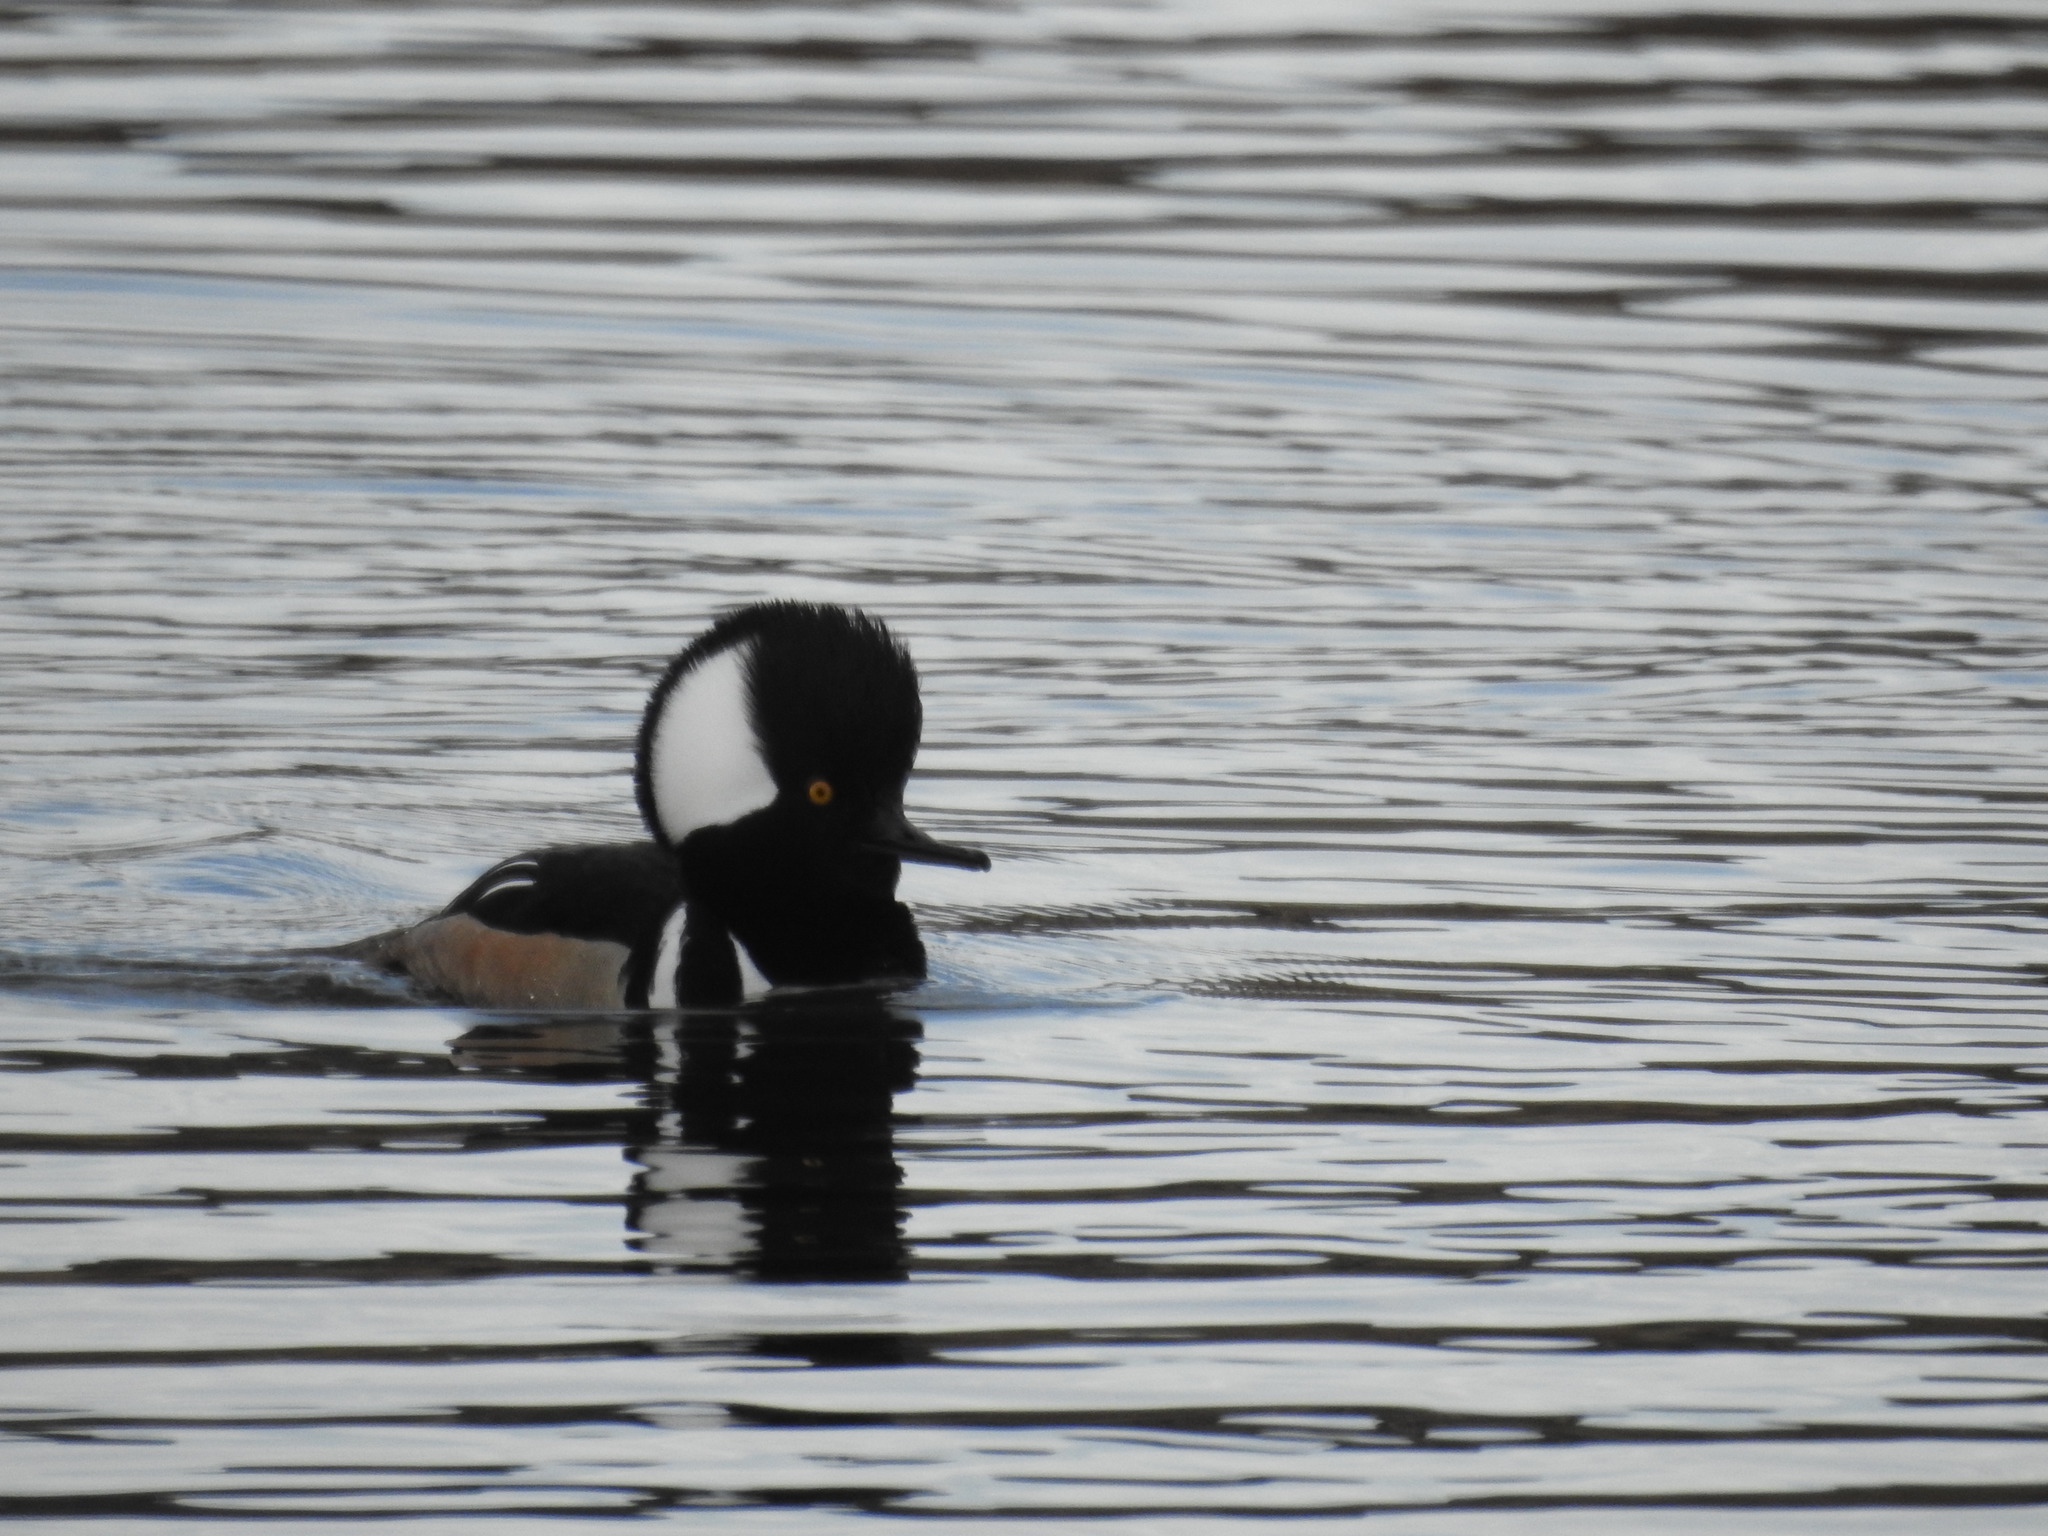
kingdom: Animalia
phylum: Chordata
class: Aves
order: Anseriformes
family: Anatidae
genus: Lophodytes
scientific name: Lophodytes cucullatus
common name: Hooded merganser
